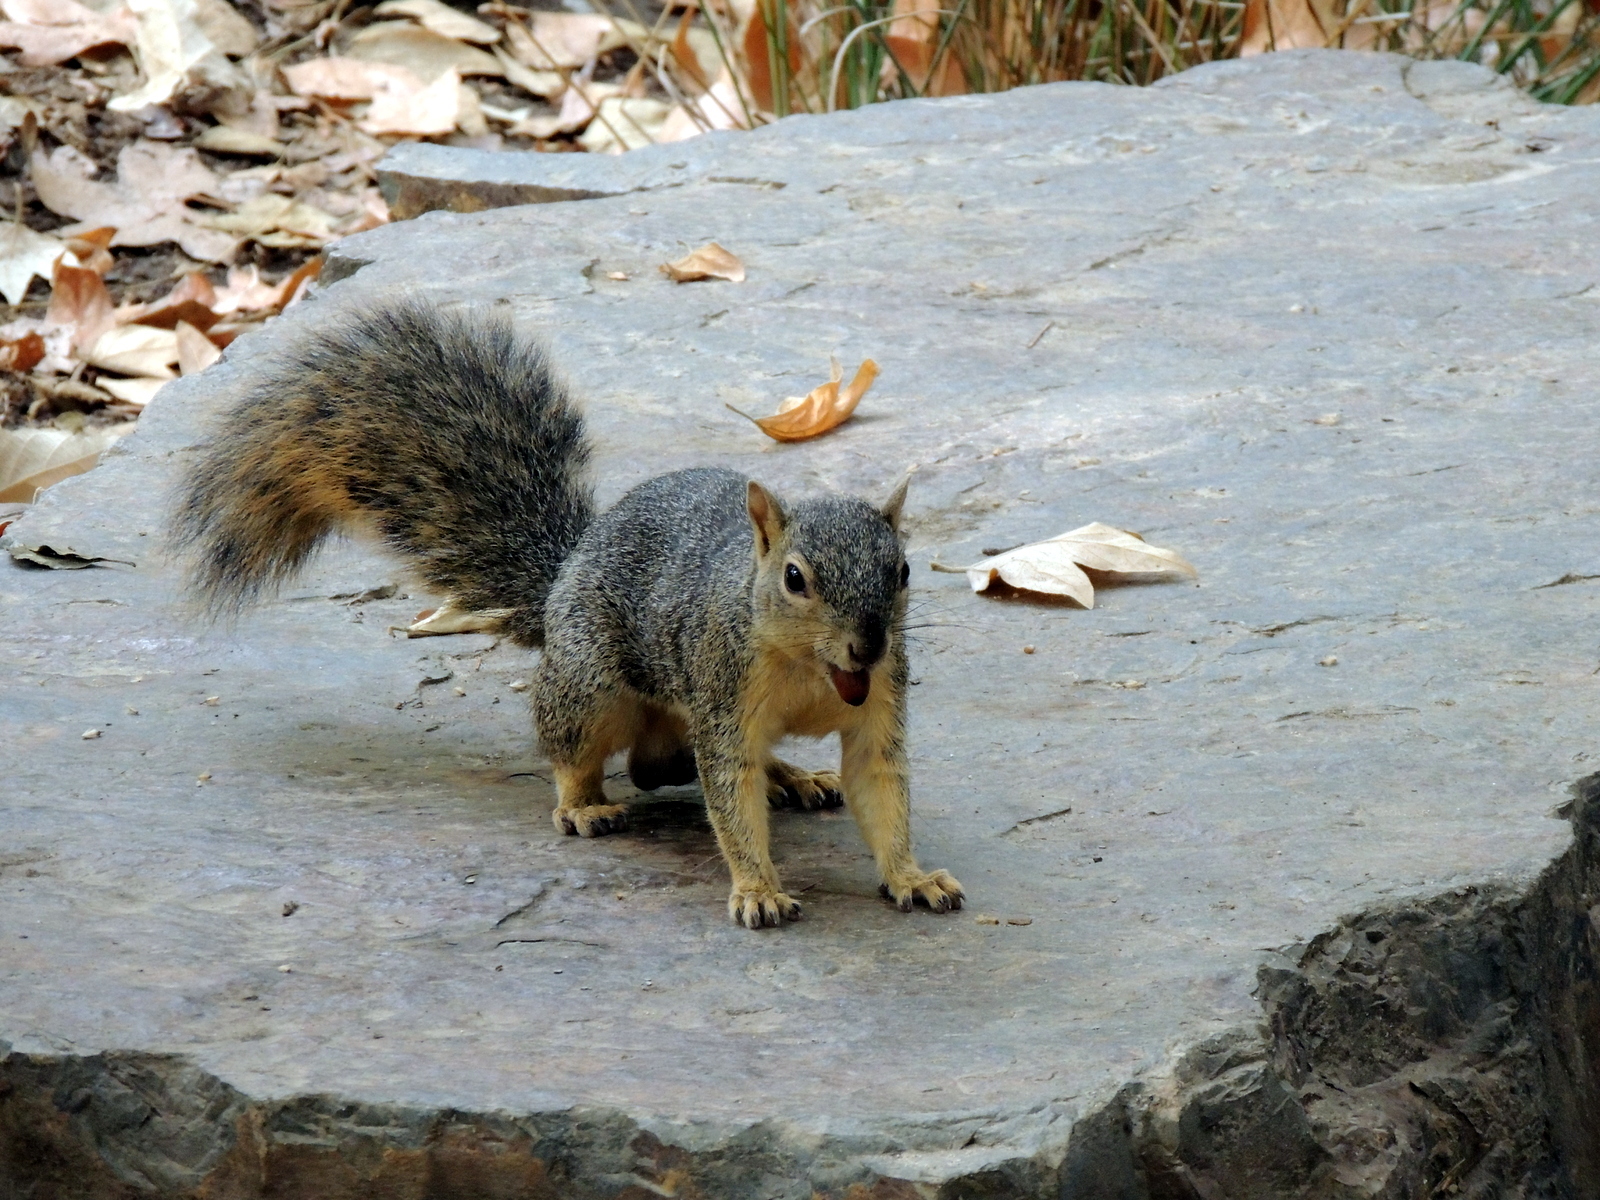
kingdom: Animalia
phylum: Chordata
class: Mammalia
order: Rodentia
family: Sciuridae
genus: Sciurus
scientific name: Sciurus niger
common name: Fox squirrel
